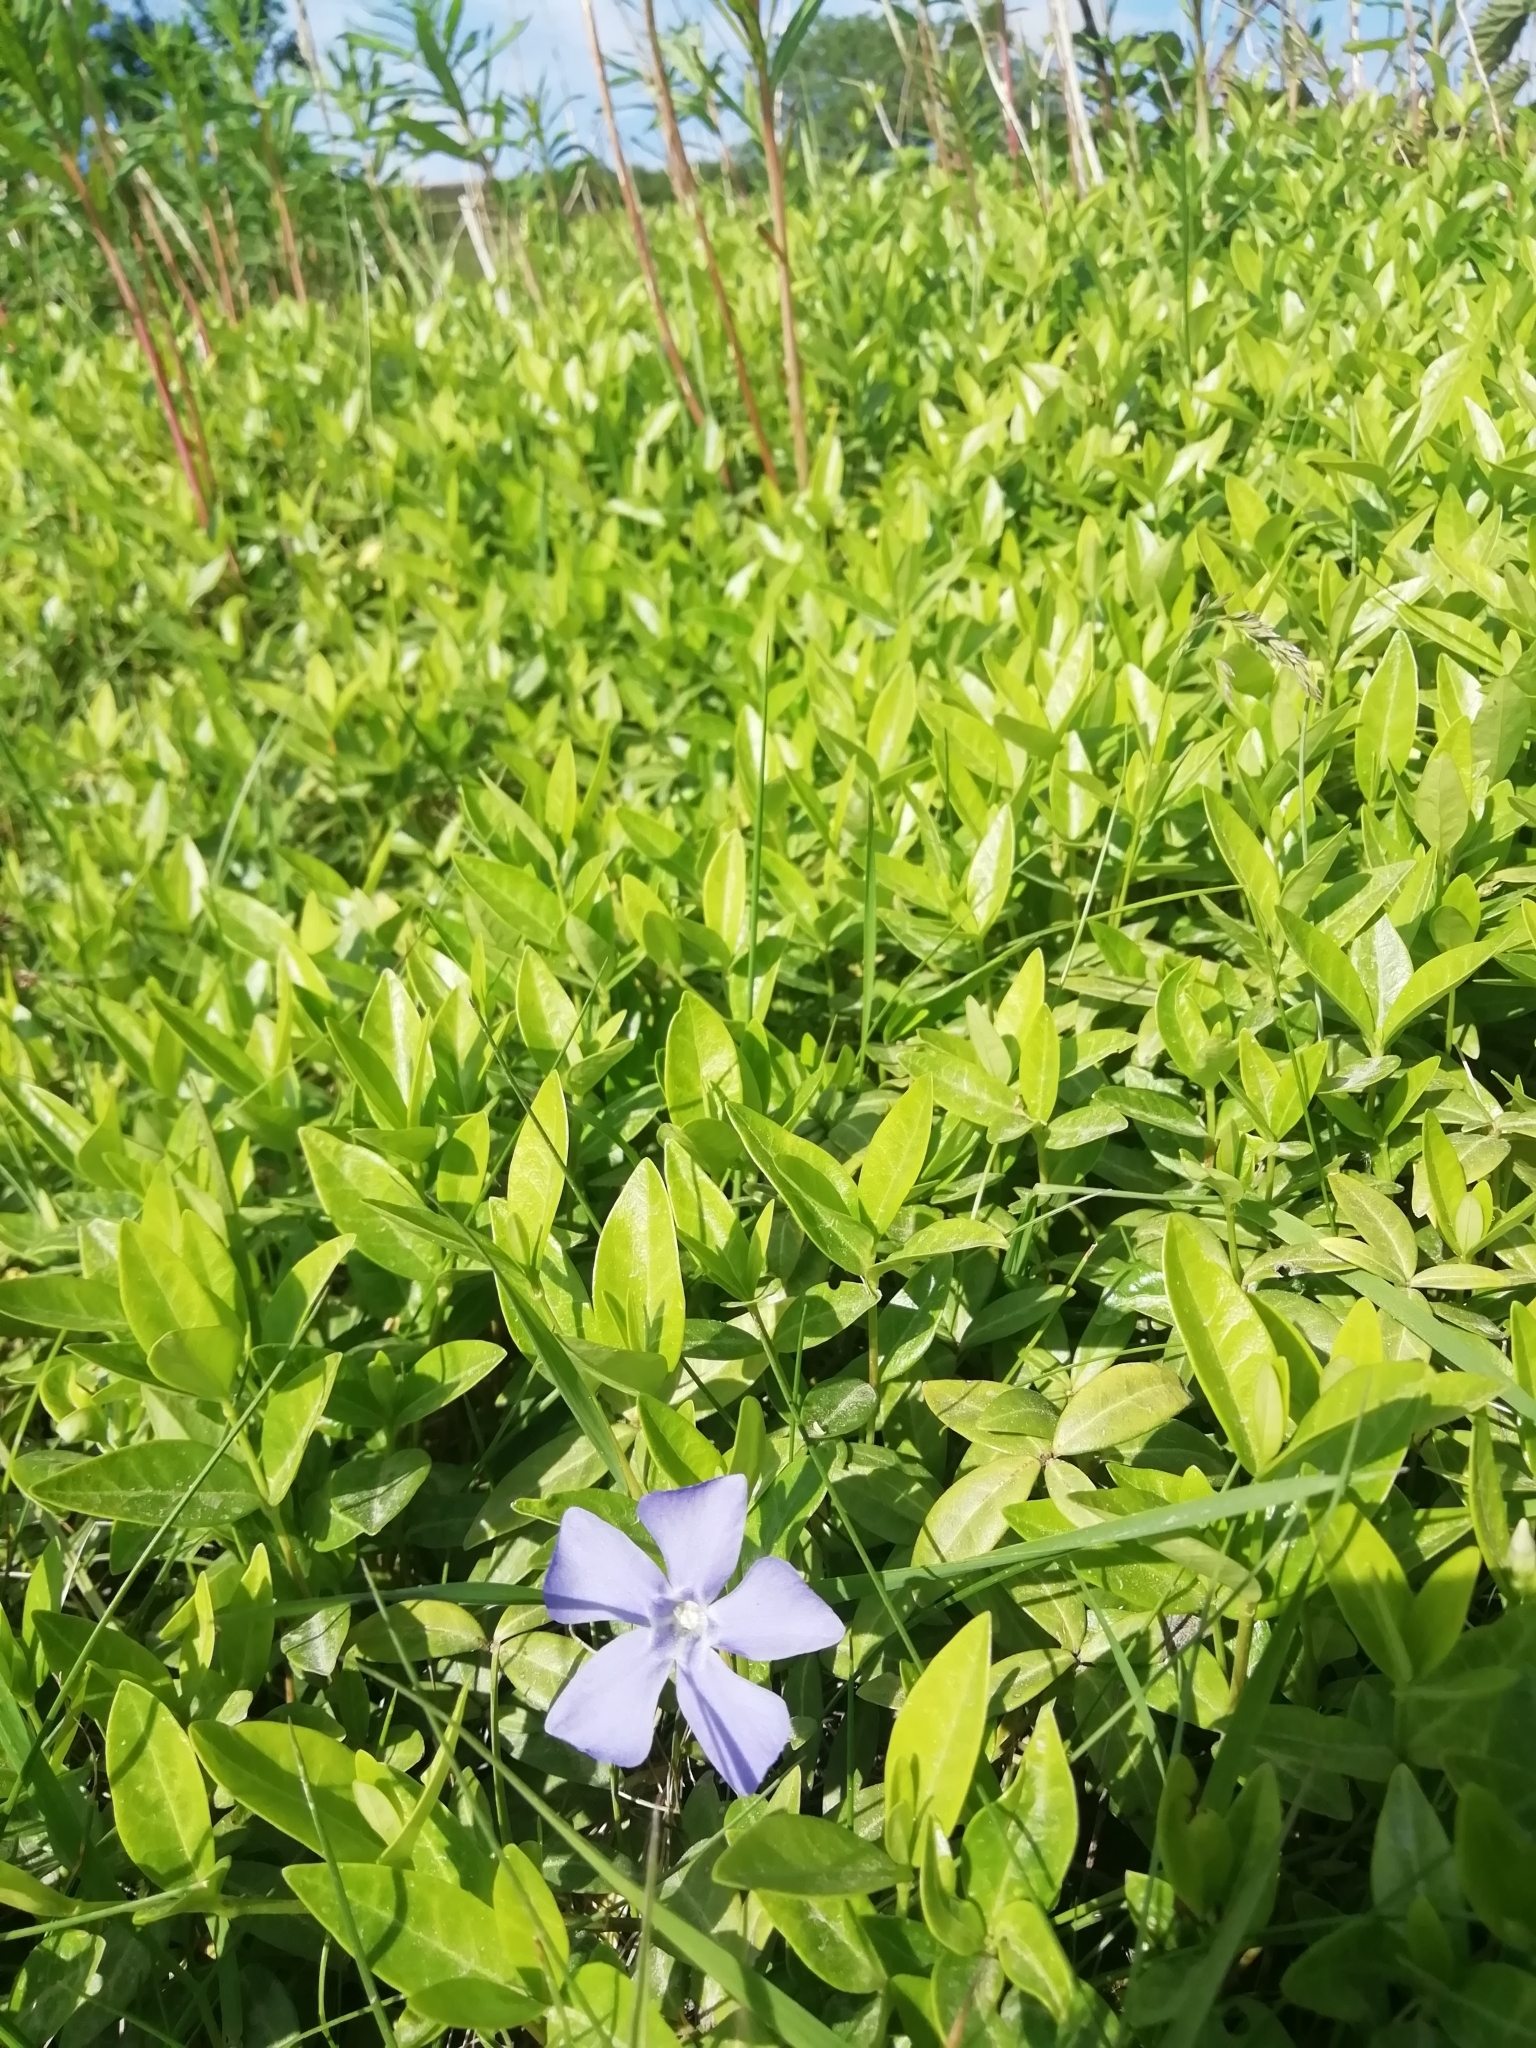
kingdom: Plantae
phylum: Tracheophyta
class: Magnoliopsida
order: Gentianales
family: Apocynaceae
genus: Vinca
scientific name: Vinca minor
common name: Lesser periwinkle
